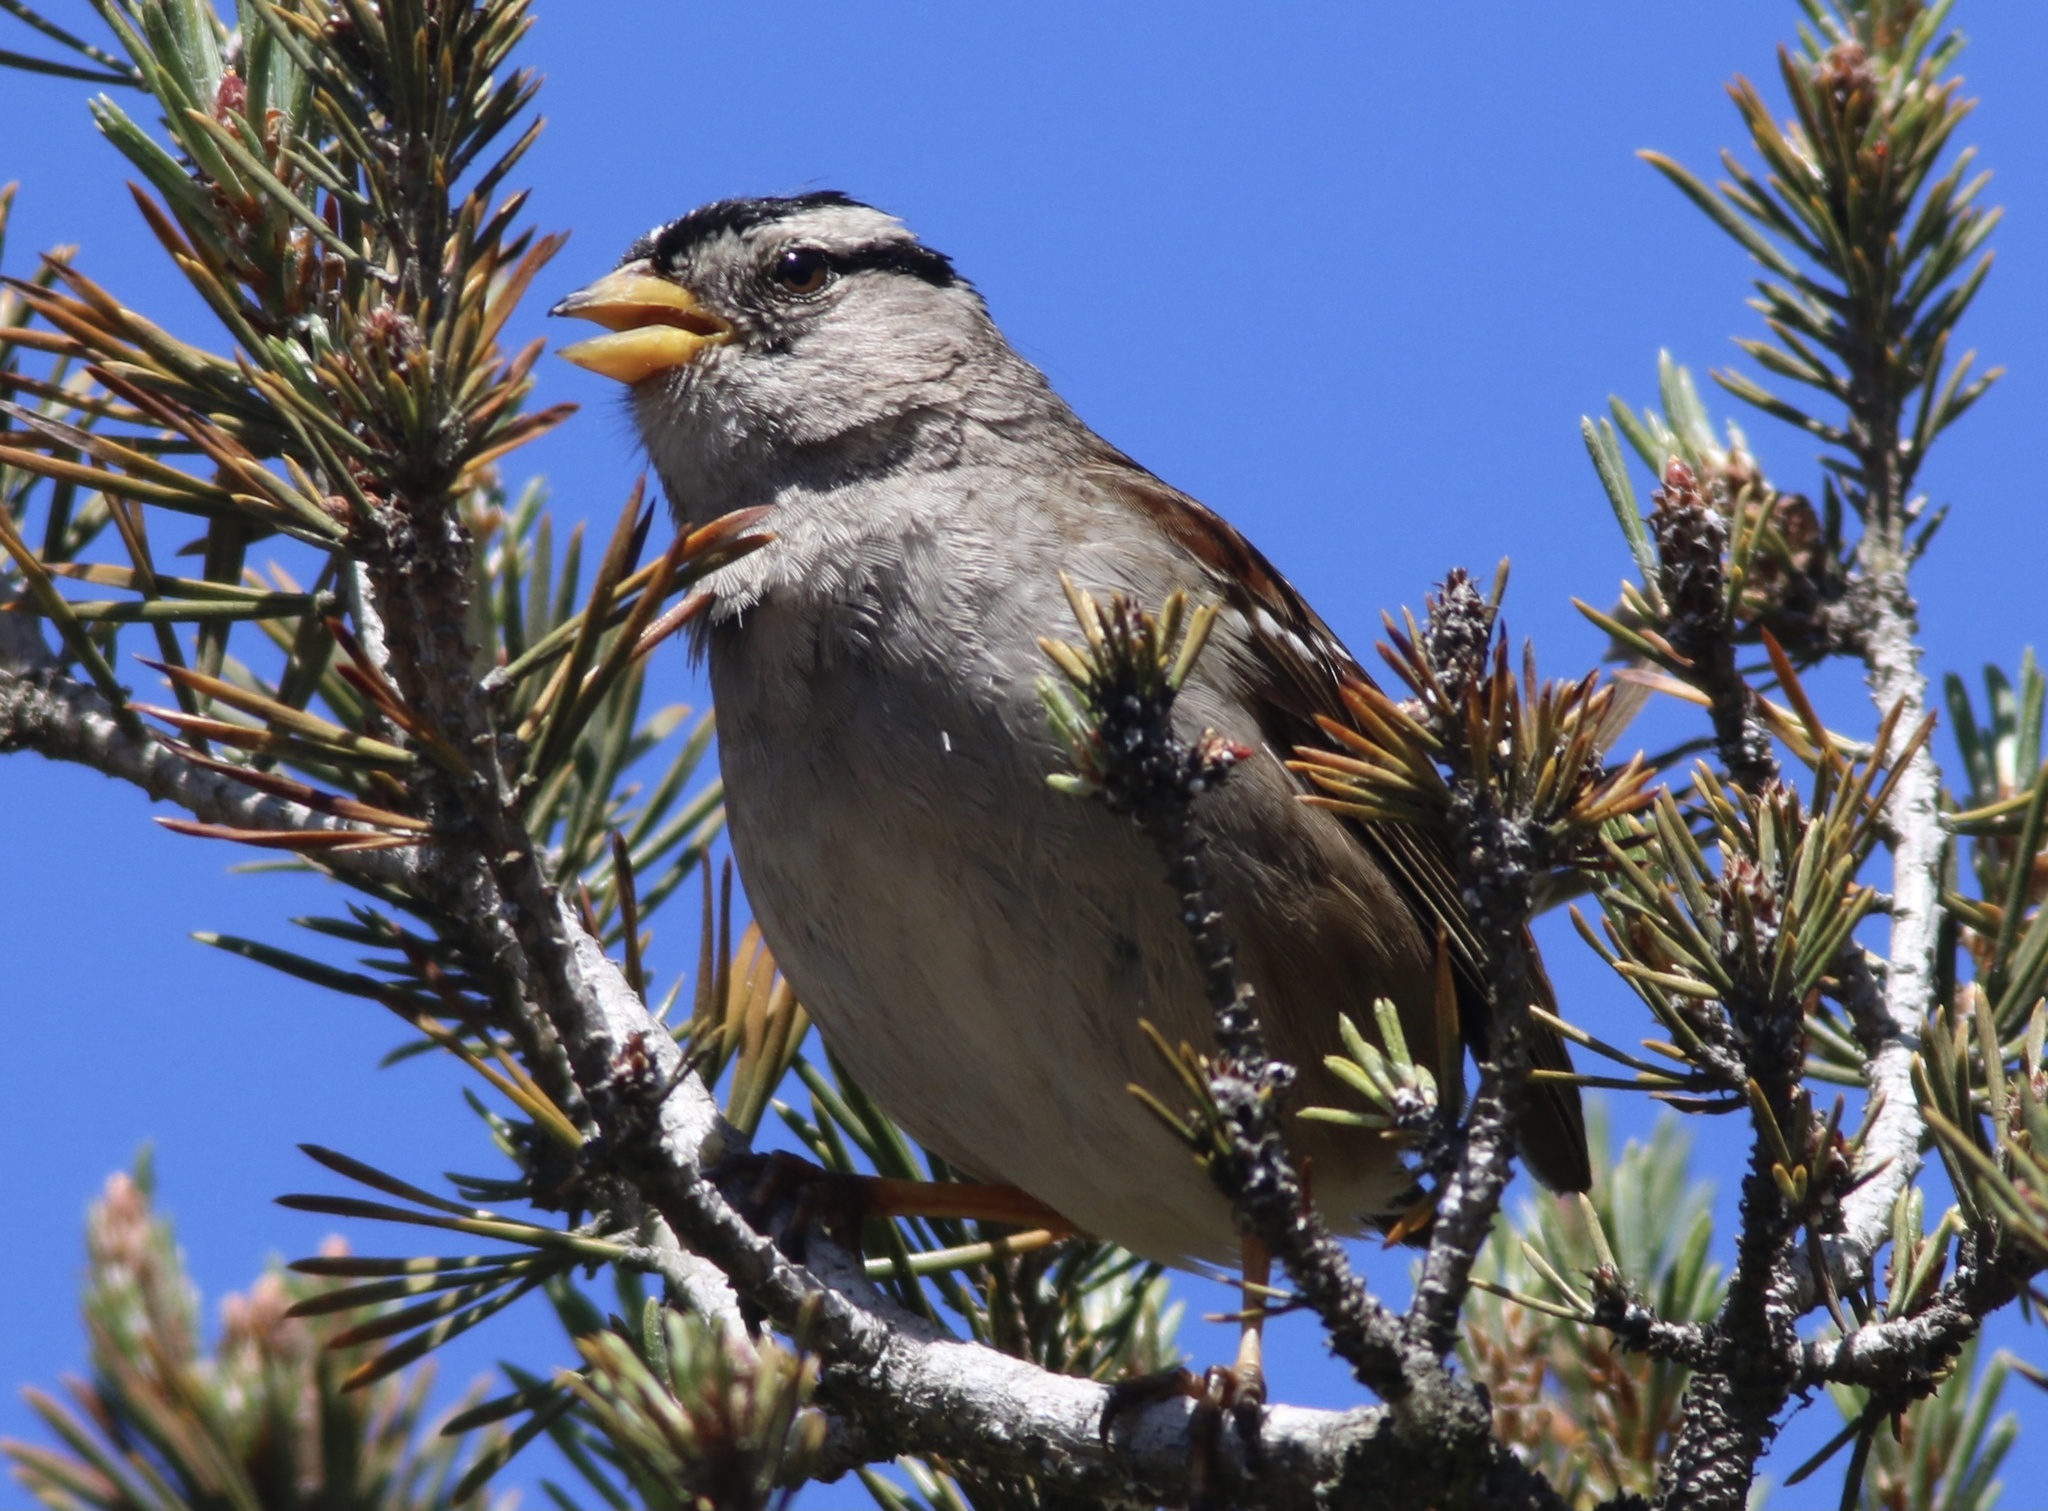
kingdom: Animalia
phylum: Chordata
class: Aves
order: Passeriformes
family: Passerellidae
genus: Zonotrichia
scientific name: Zonotrichia leucophrys
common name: White-crowned sparrow
